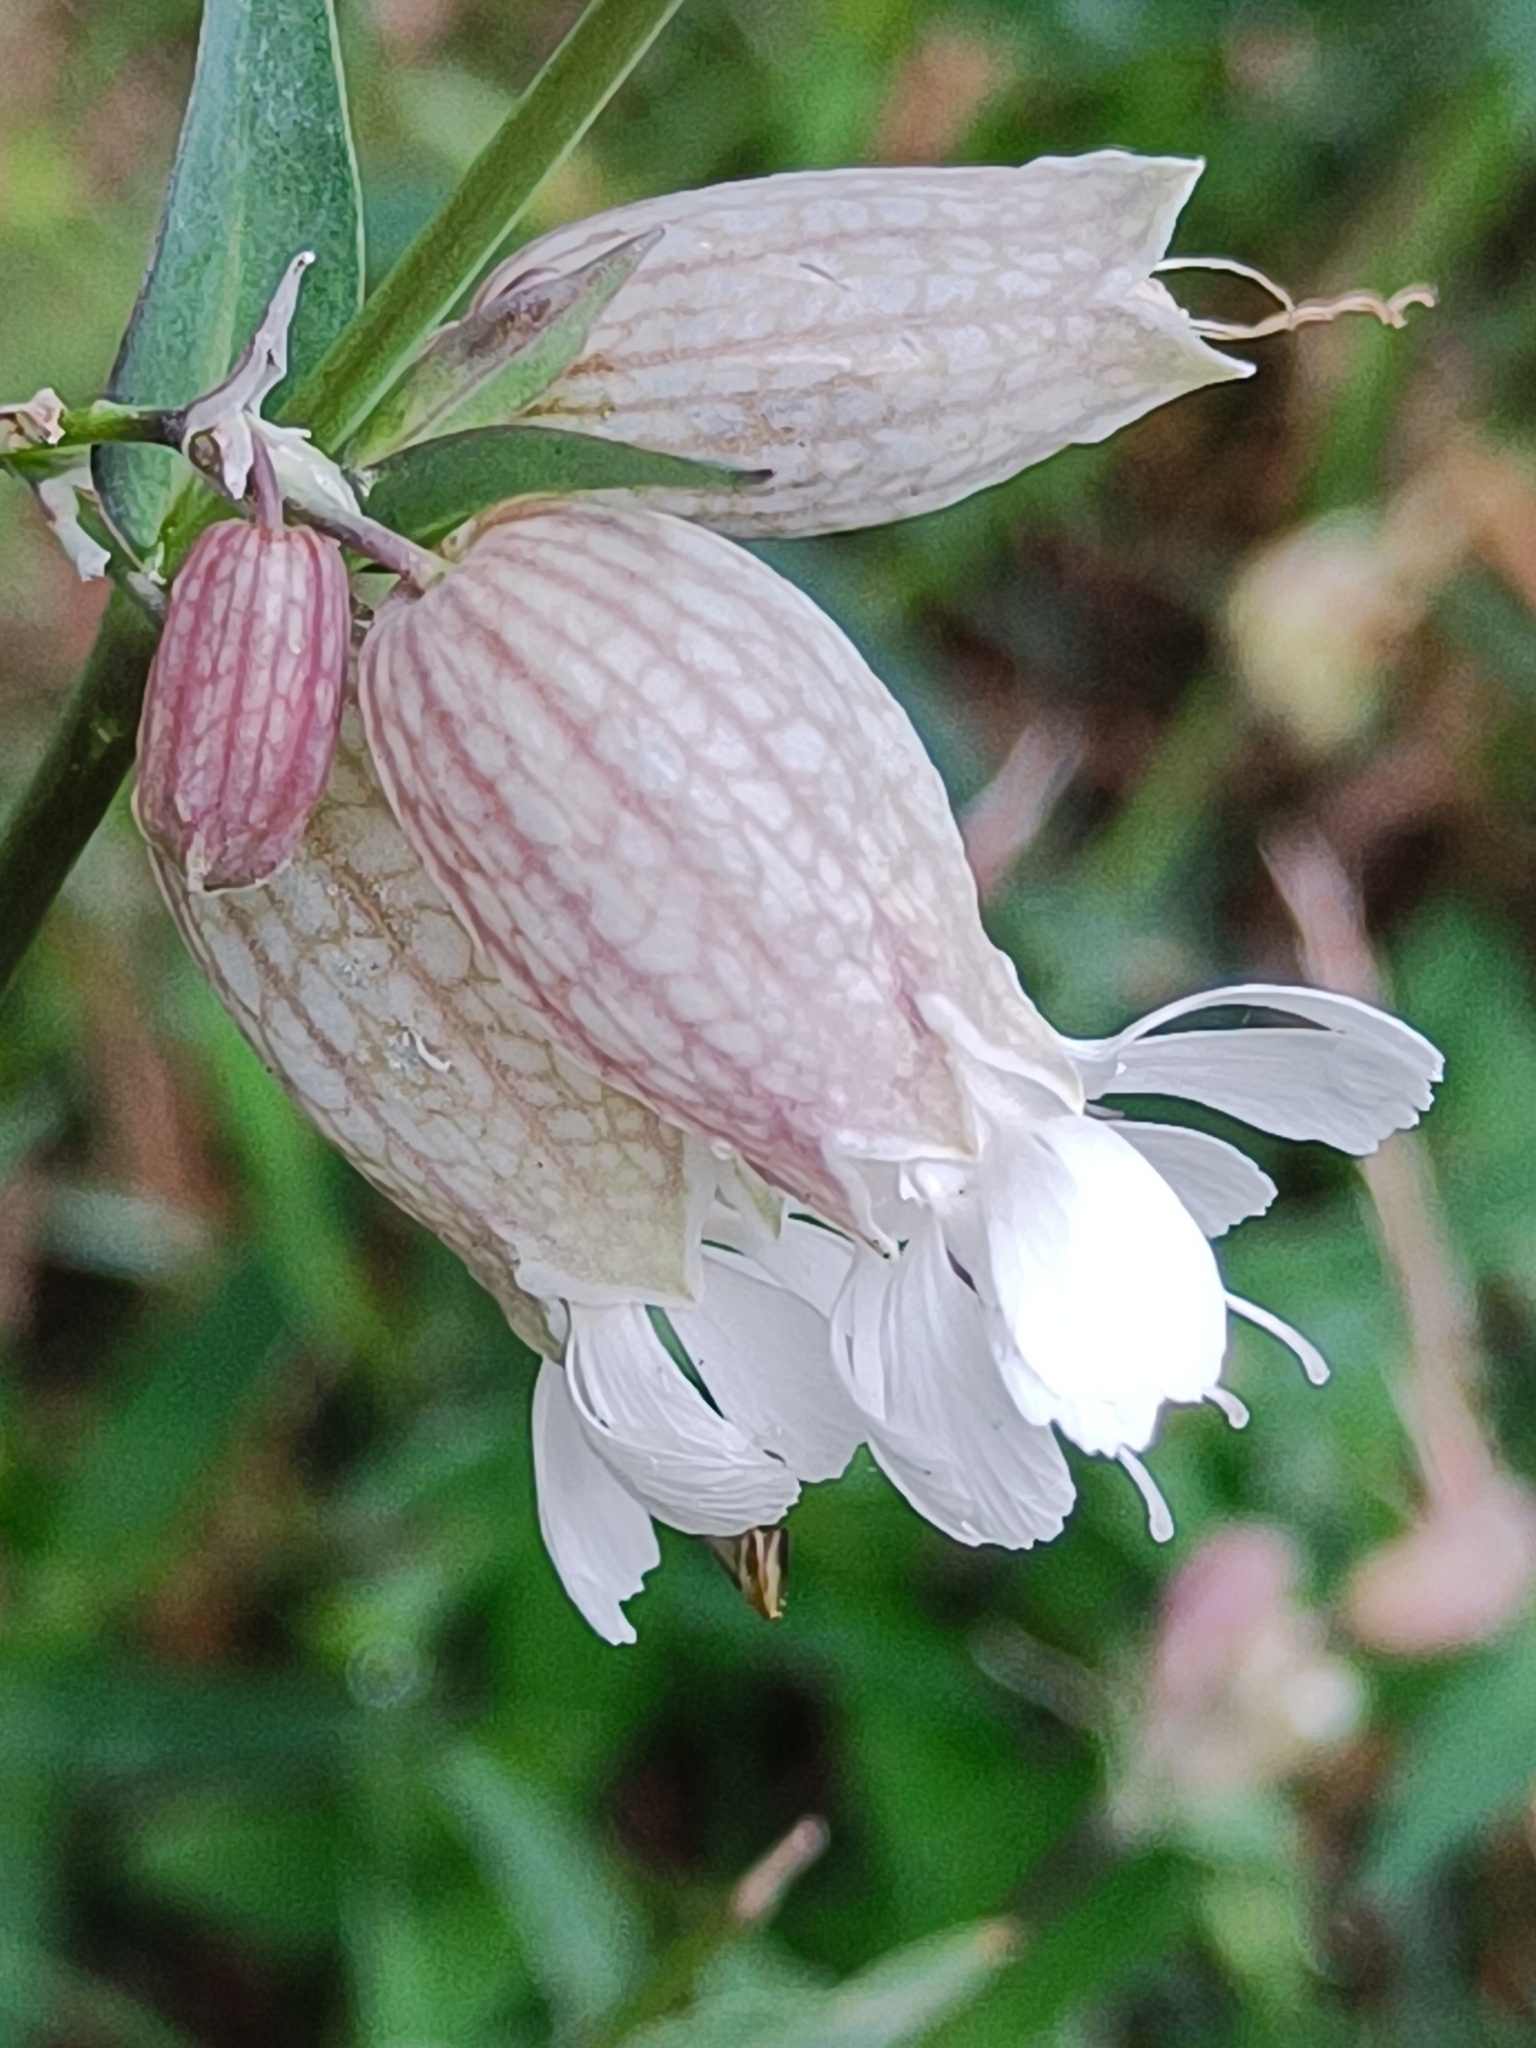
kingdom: Plantae
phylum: Tracheophyta
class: Magnoliopsida
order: Caryophyllales
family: Caryophyllaceae
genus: Silene
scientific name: Silene vulgaris
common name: Bladder campion
